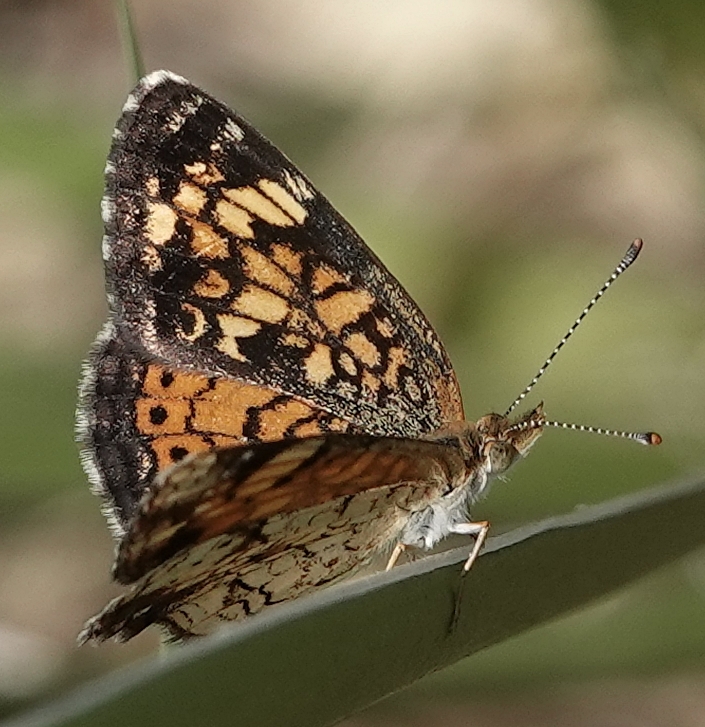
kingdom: Animalia
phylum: Arthropoda
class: Insecta
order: Lepidoptera
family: Nymphalidae
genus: Phyciodes
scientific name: Phyciodes tharos
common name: Pearl crescent
